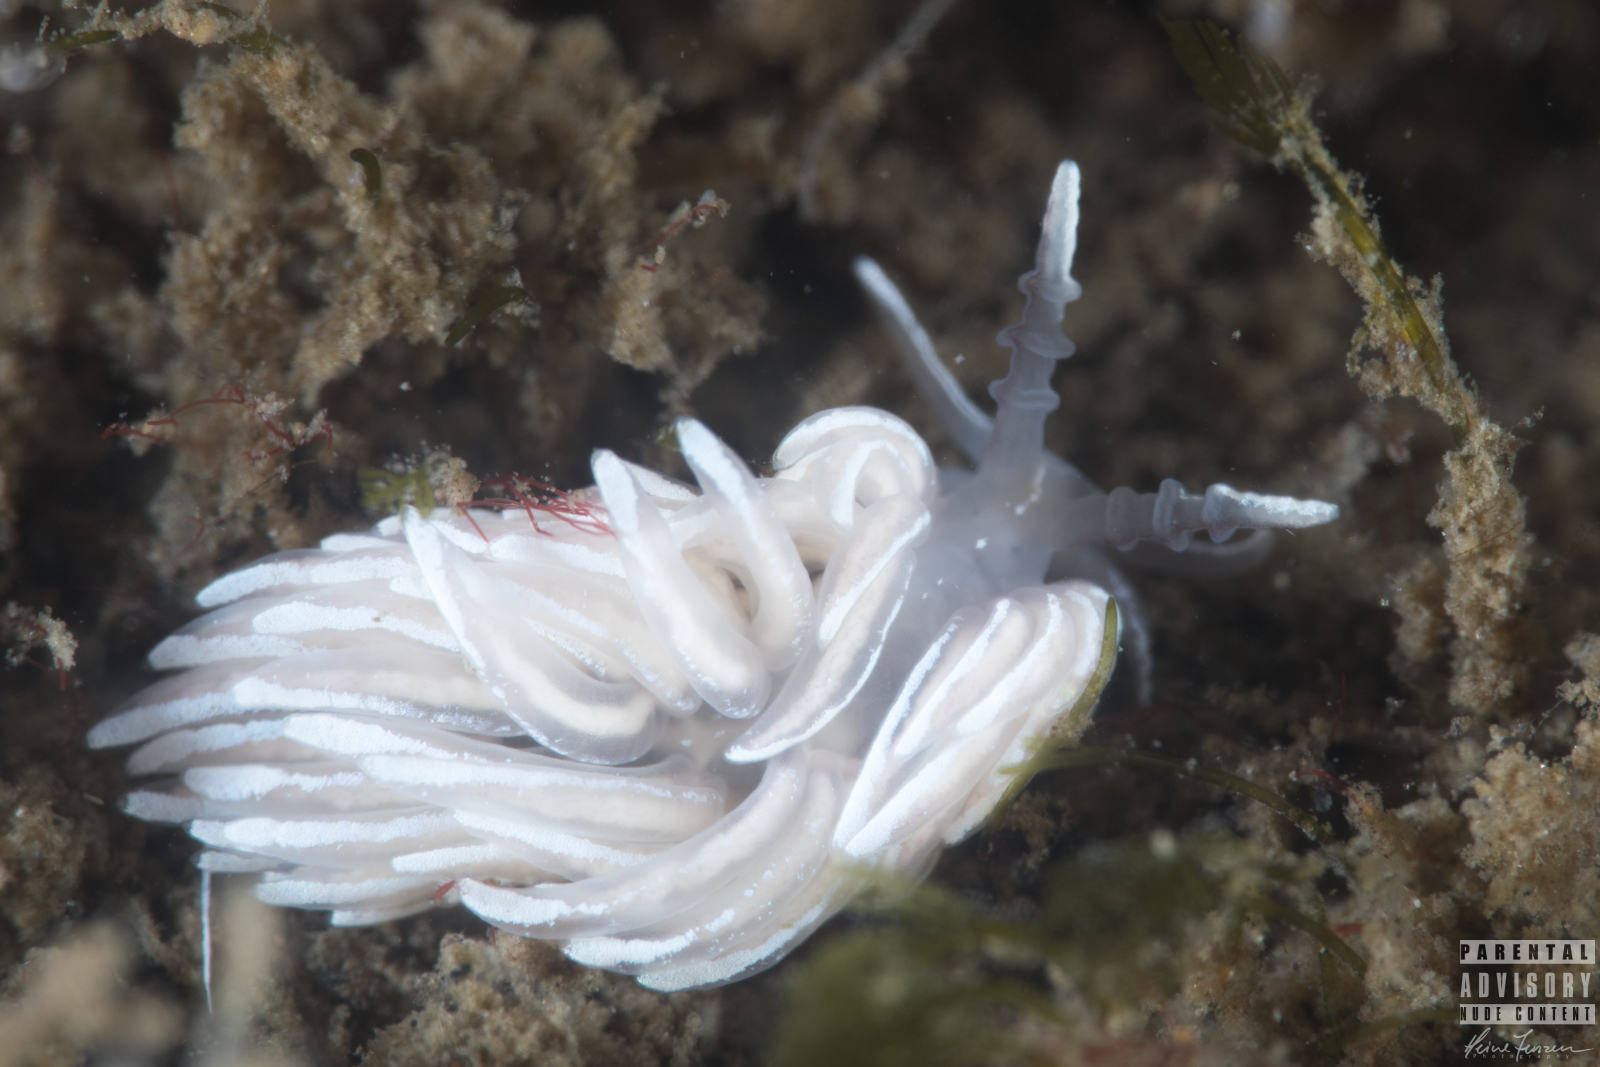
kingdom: Animalia
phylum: Mollusca
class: Gastropoda
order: Nudibranchia
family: Facelinidae
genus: Favorinus
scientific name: Favorinus blianus
